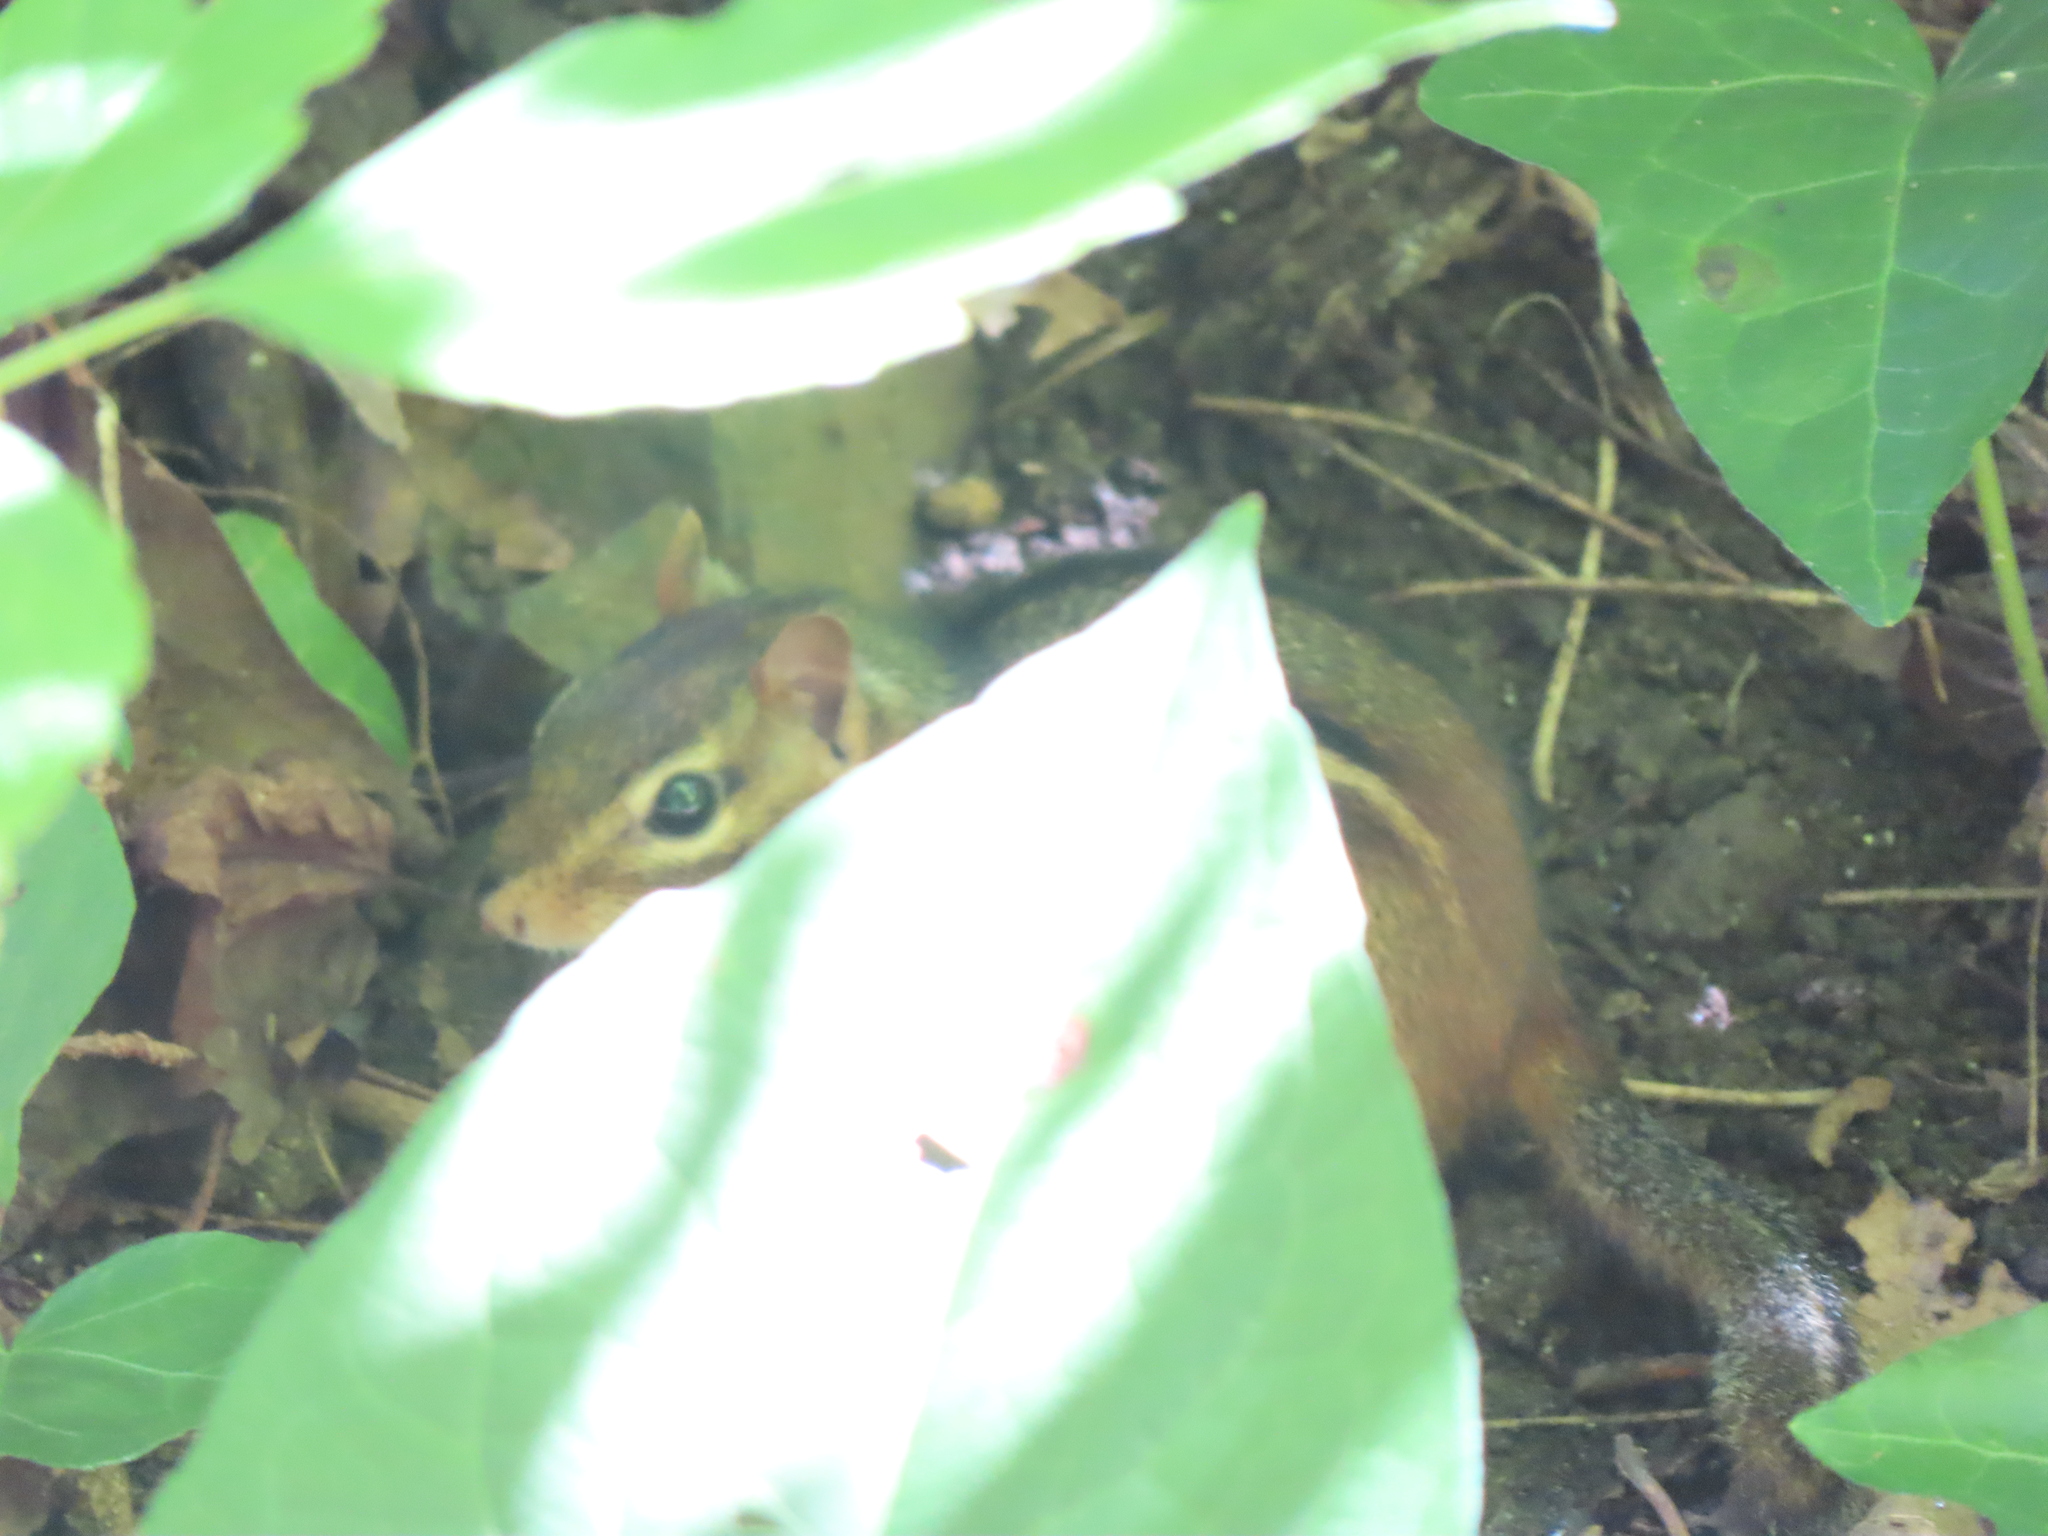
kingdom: Animalia
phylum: Chordata
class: Mammalia
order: Rodentia
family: Sciuridae
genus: Tamias
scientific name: Tamias striatus
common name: Eastern chipmunk
